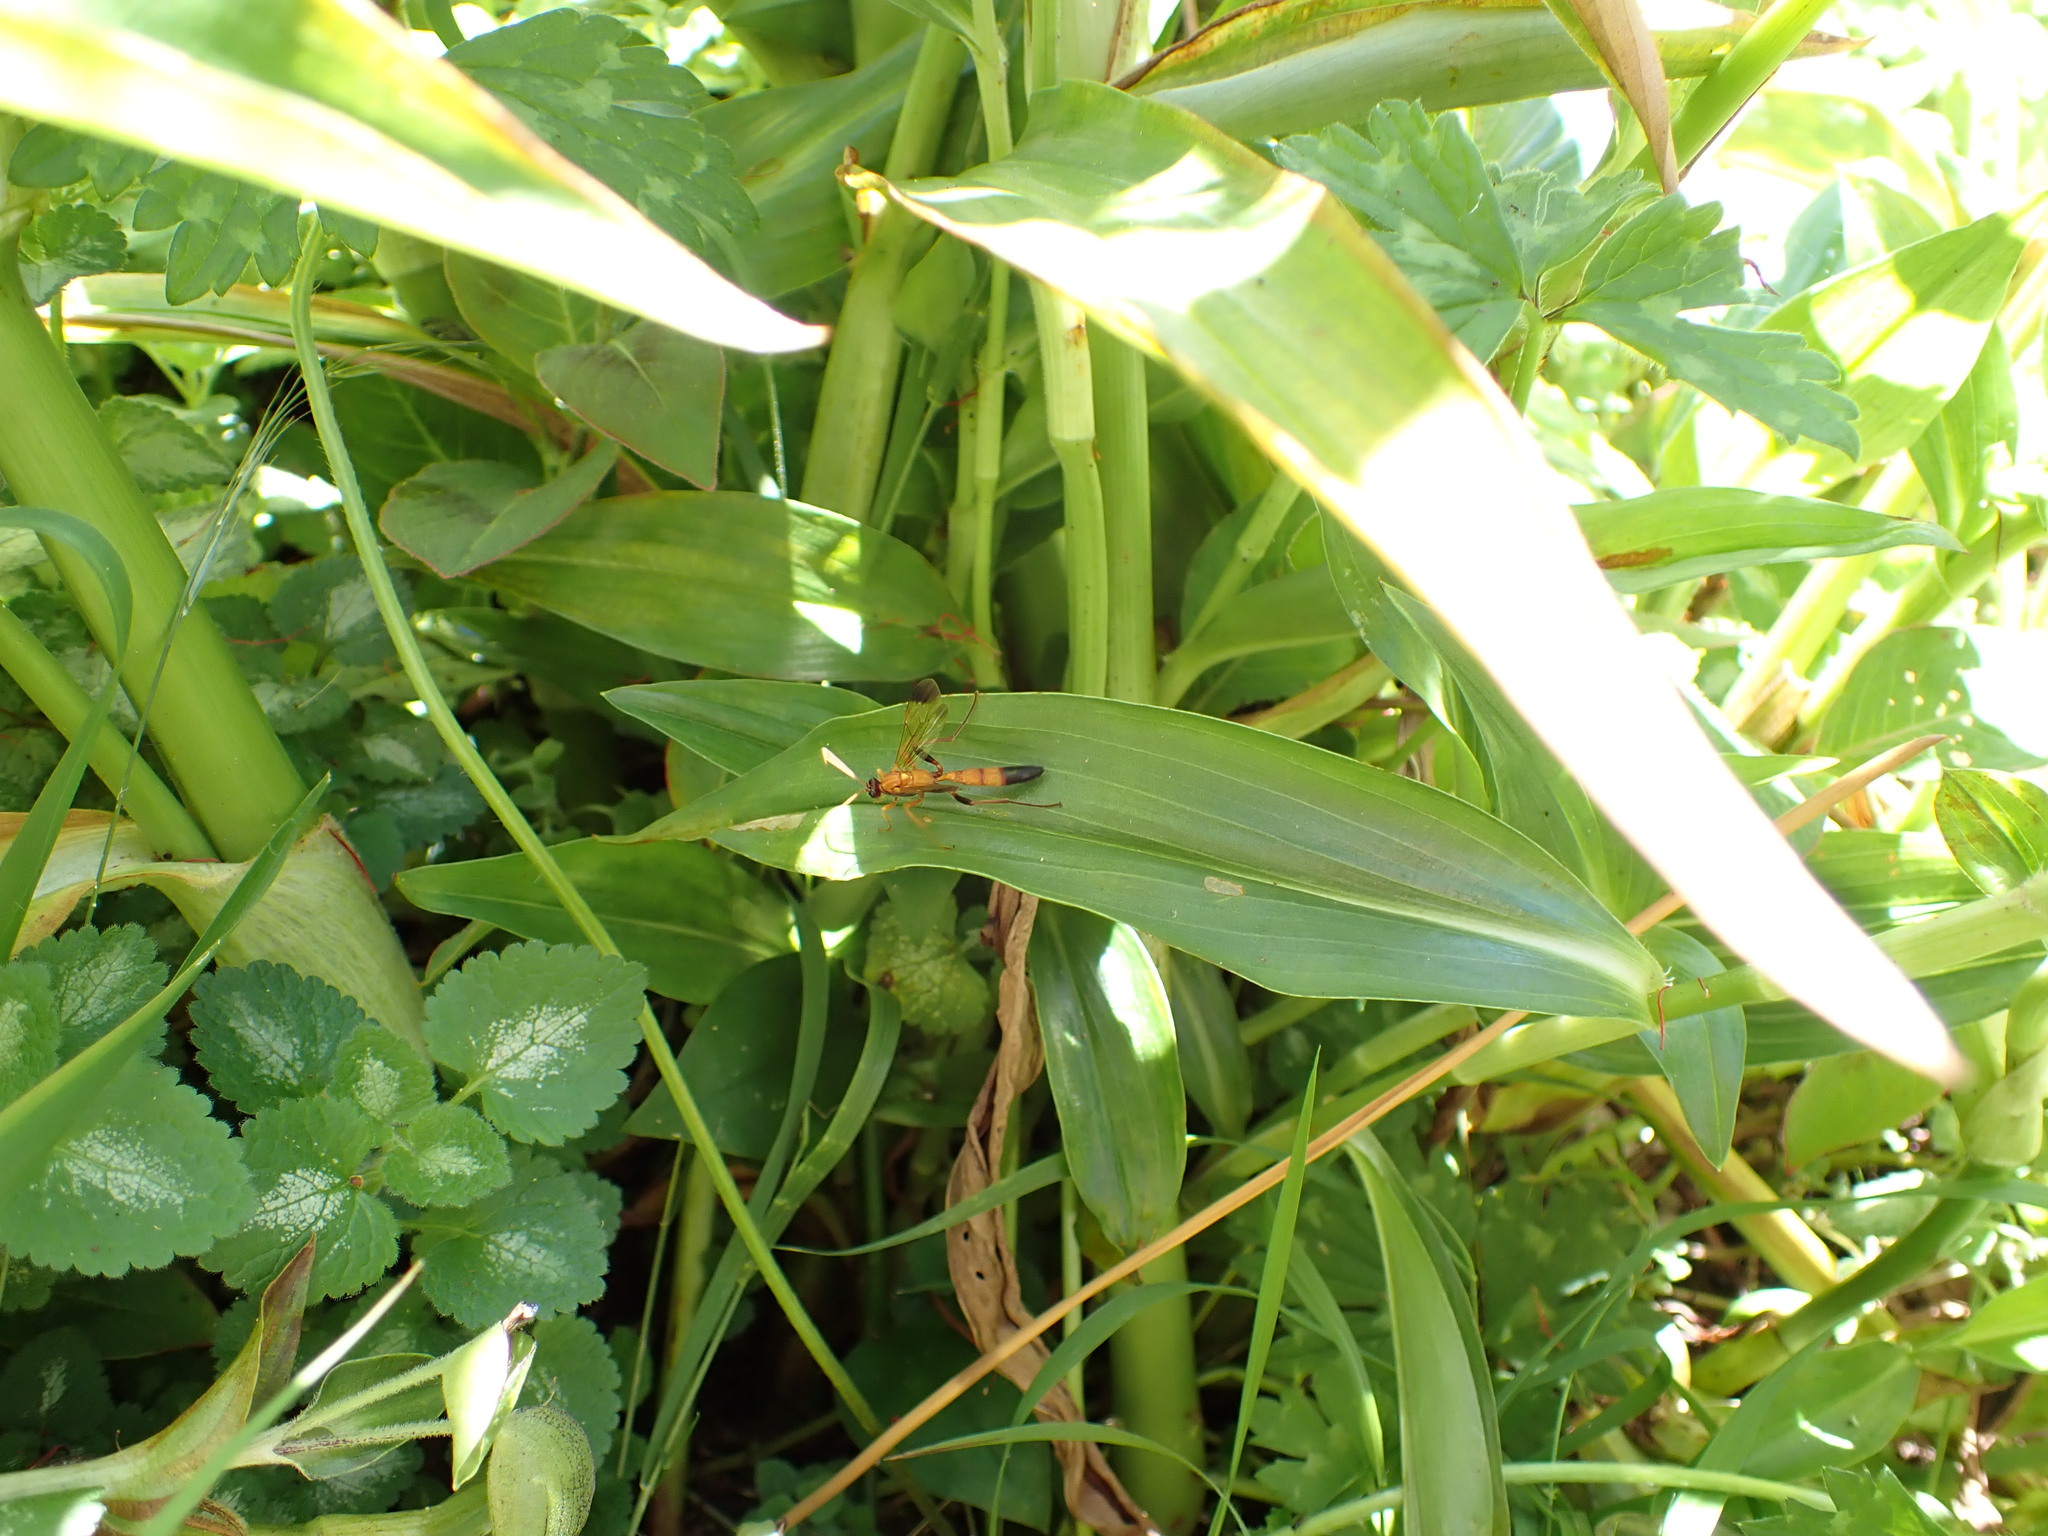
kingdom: Animalia
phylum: Arthropoda
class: Insecta
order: Hymenoptera
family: Ichneumonidae
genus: Ctenochares
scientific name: Ctenochares bicolorus
